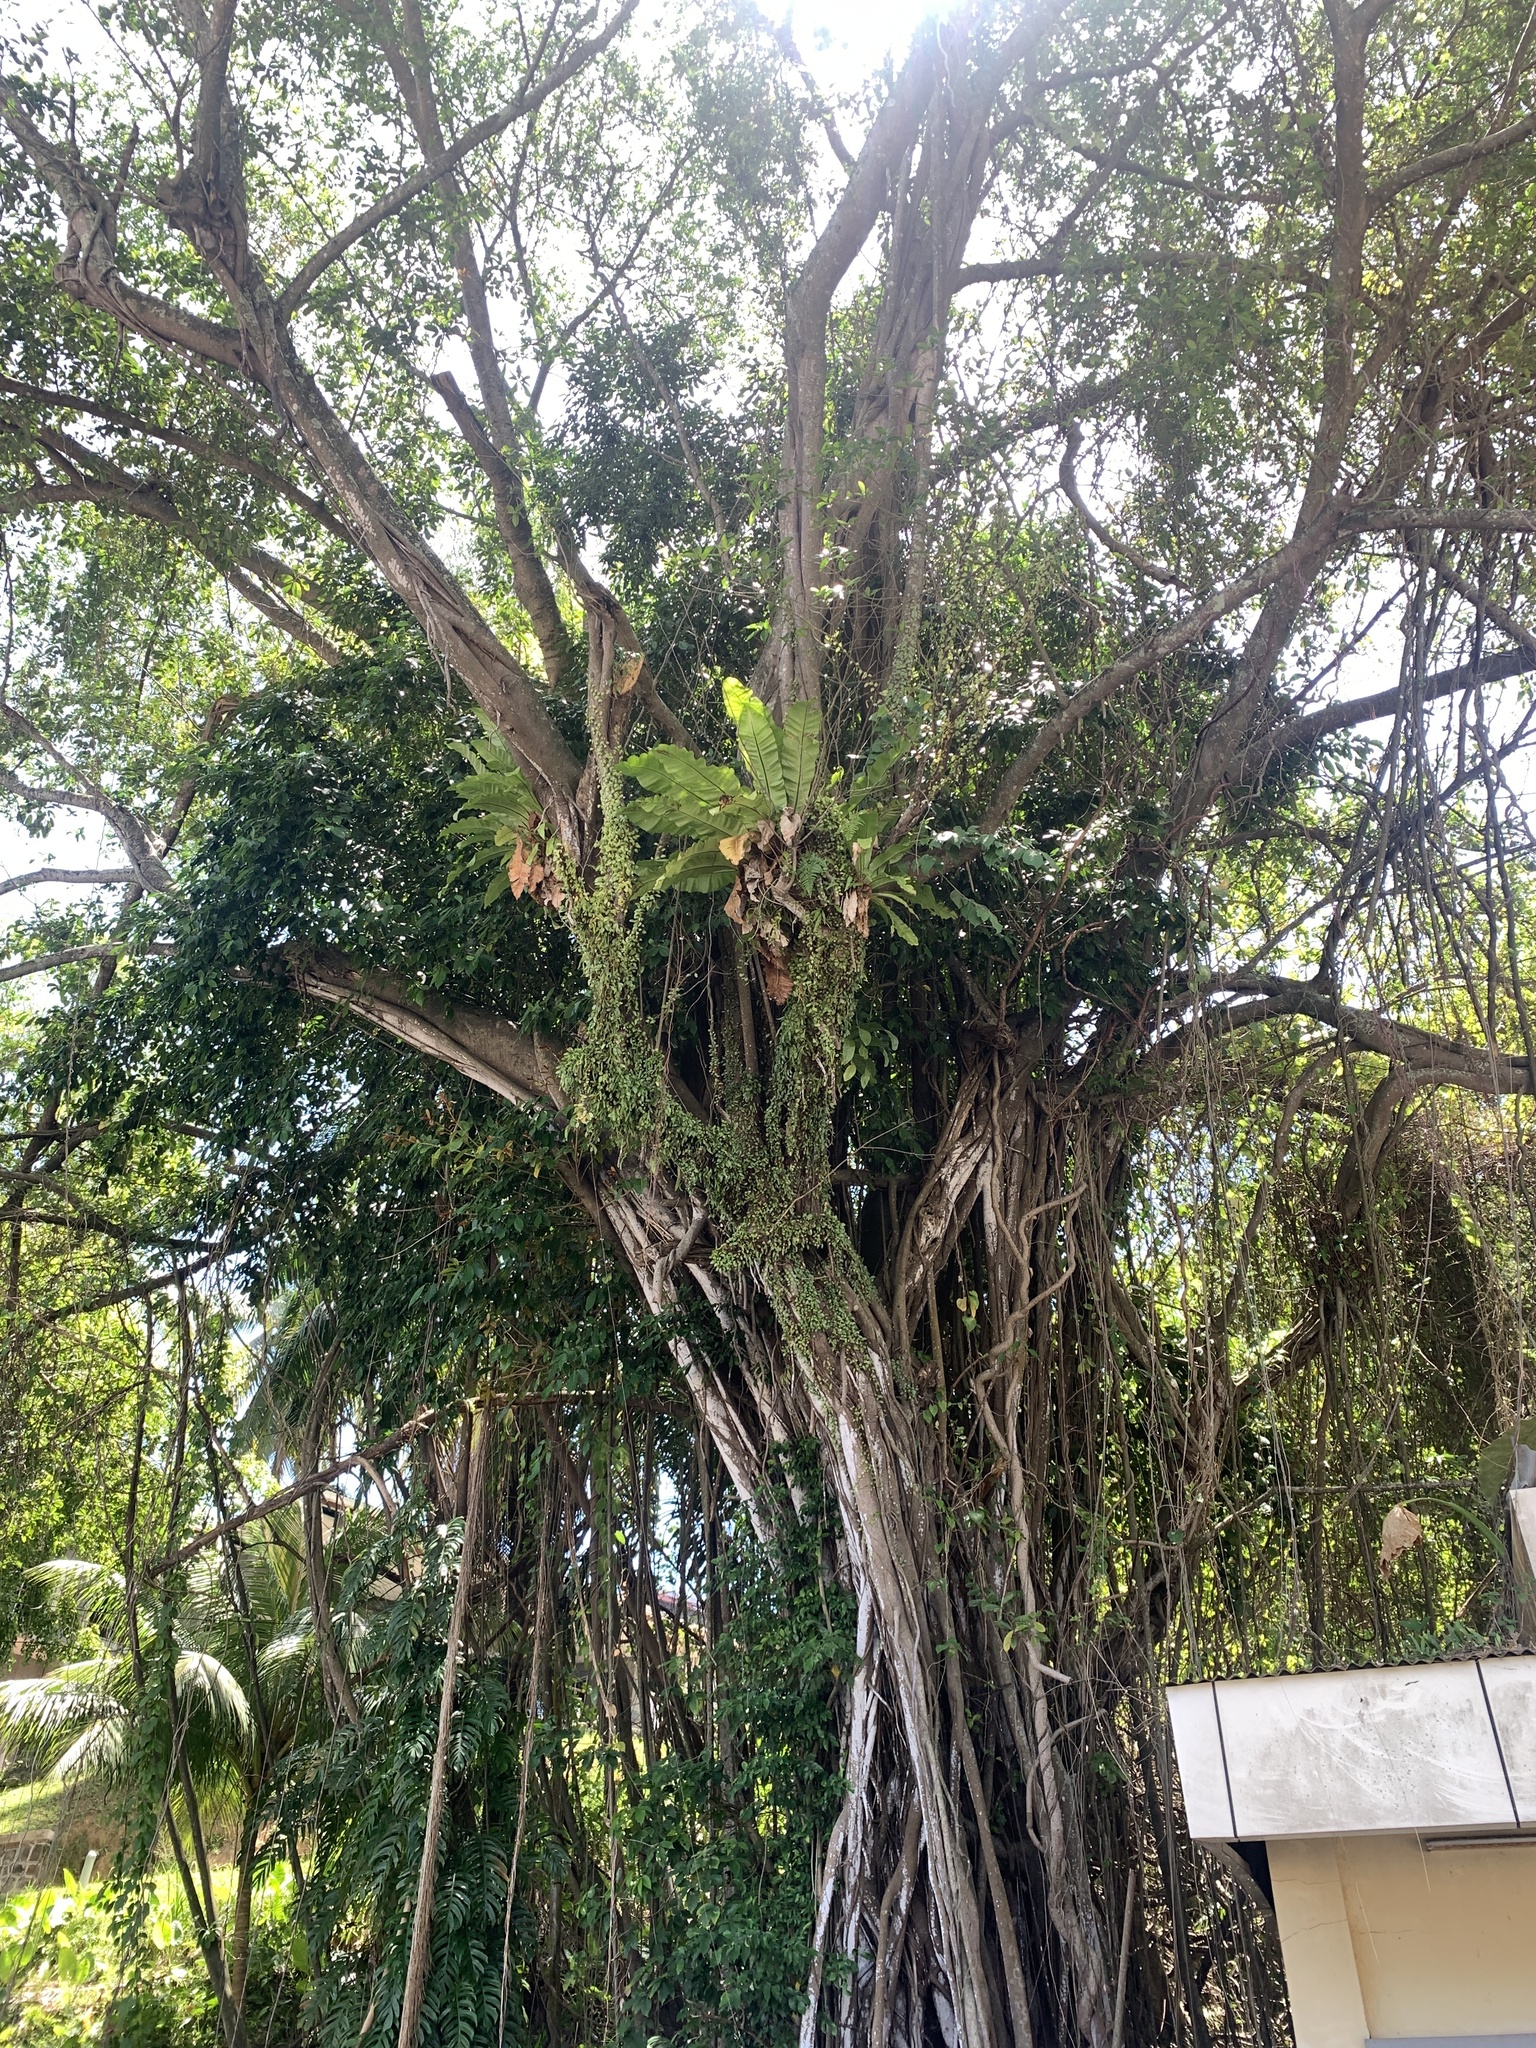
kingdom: Plantae
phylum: Tracheophyta
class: Magnoliopsida
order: Rosales
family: Moraceae
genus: Ficus
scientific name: Ficus microcarpa
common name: Chinese banyan
